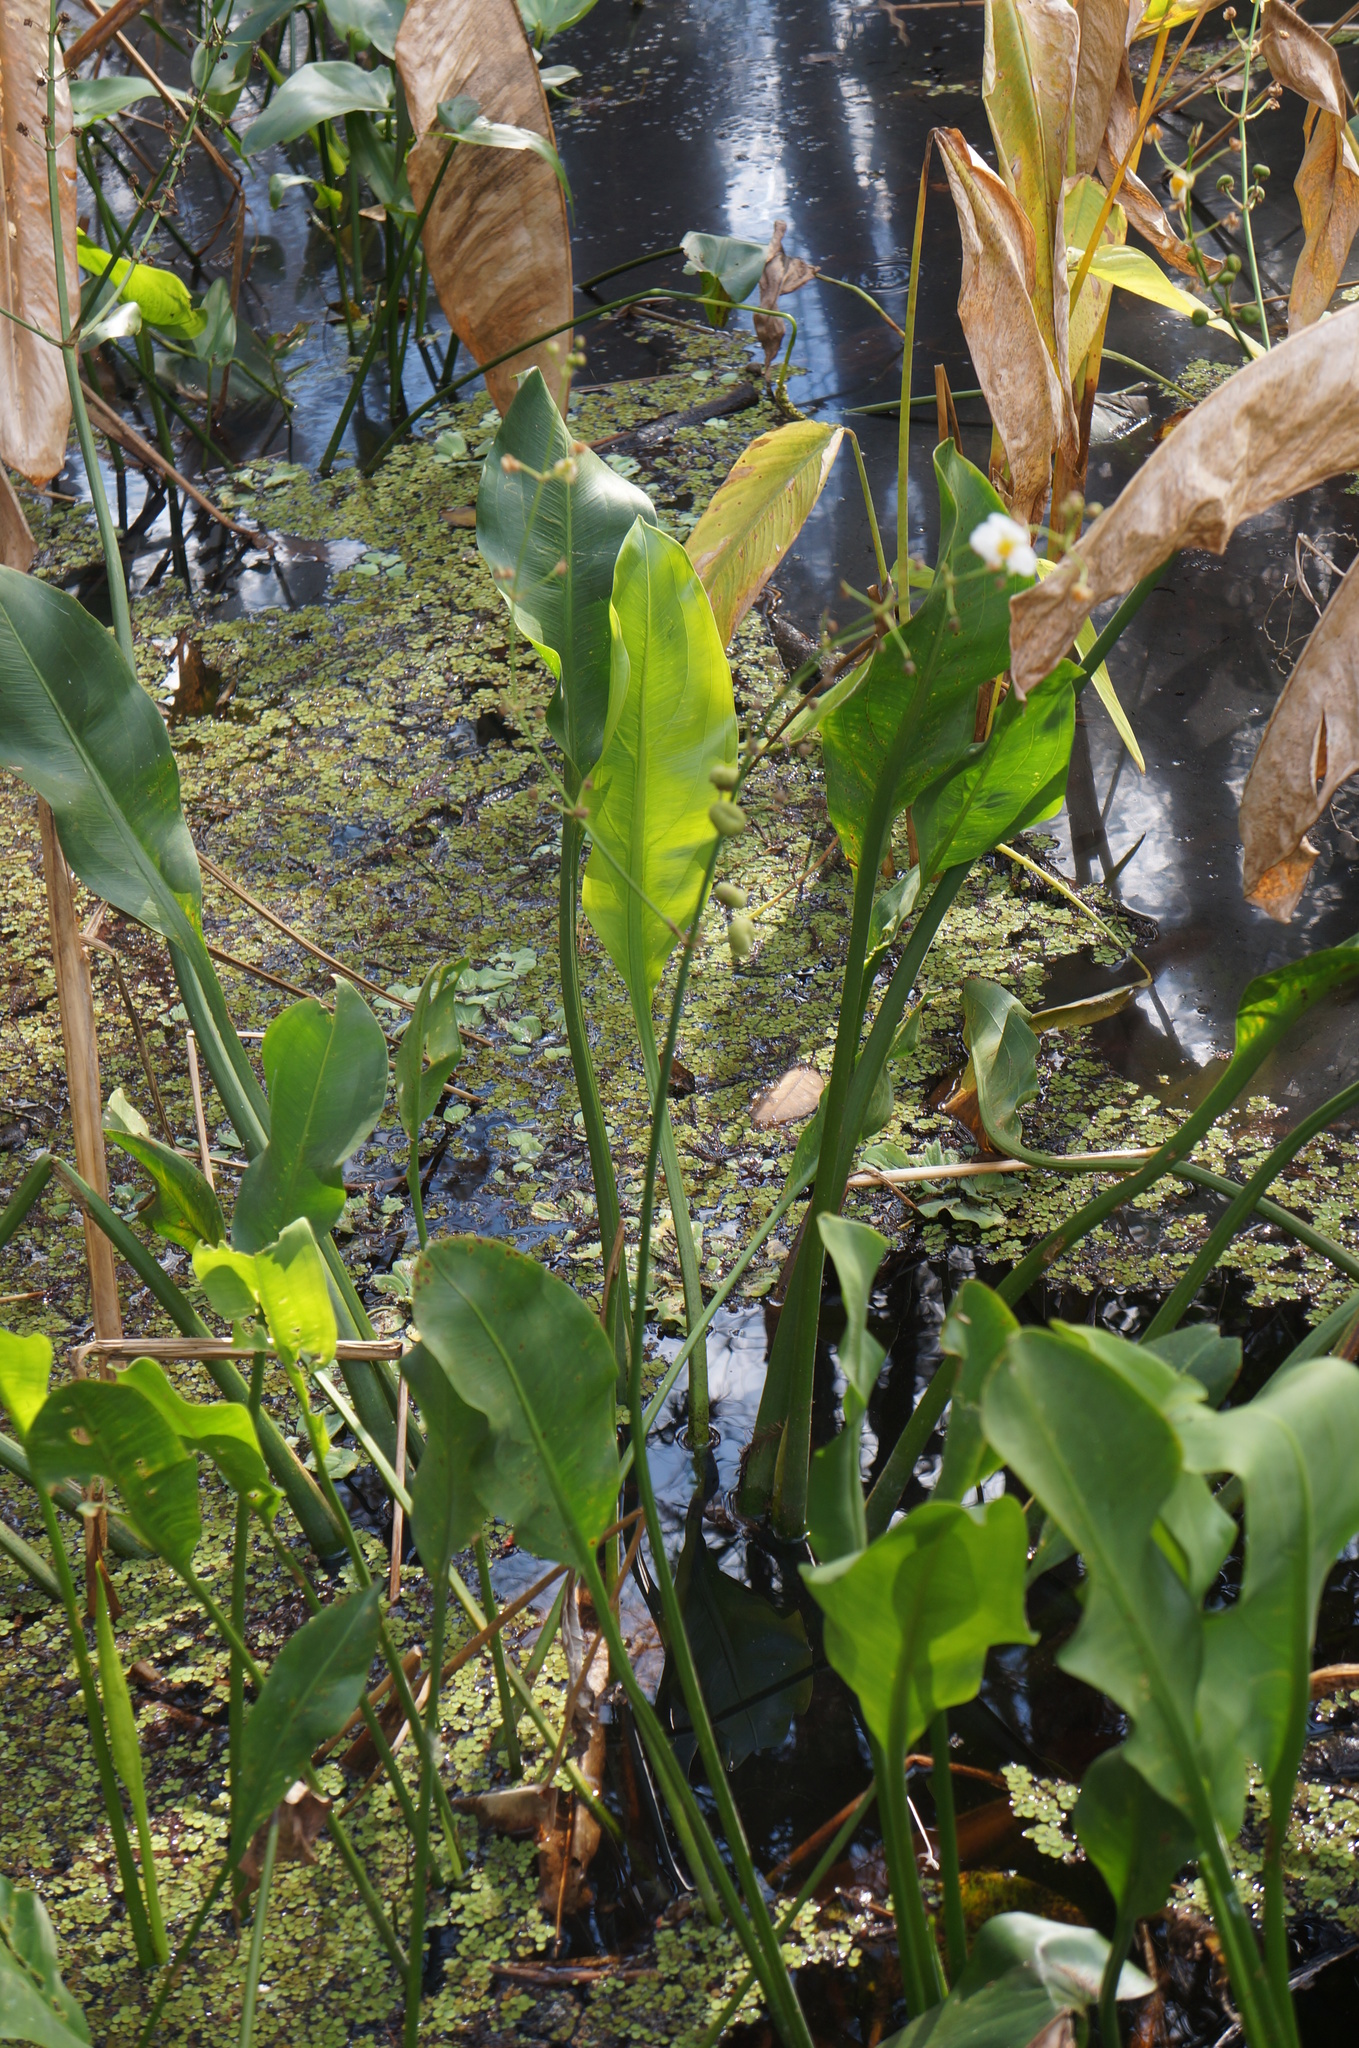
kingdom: Plantae
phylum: Tracheophyta
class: Liliopsida
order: Alismatales
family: Alismataceae
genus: Sagittaria
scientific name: Sagittaria lancifolia
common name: Lance-leaf arrowhead
